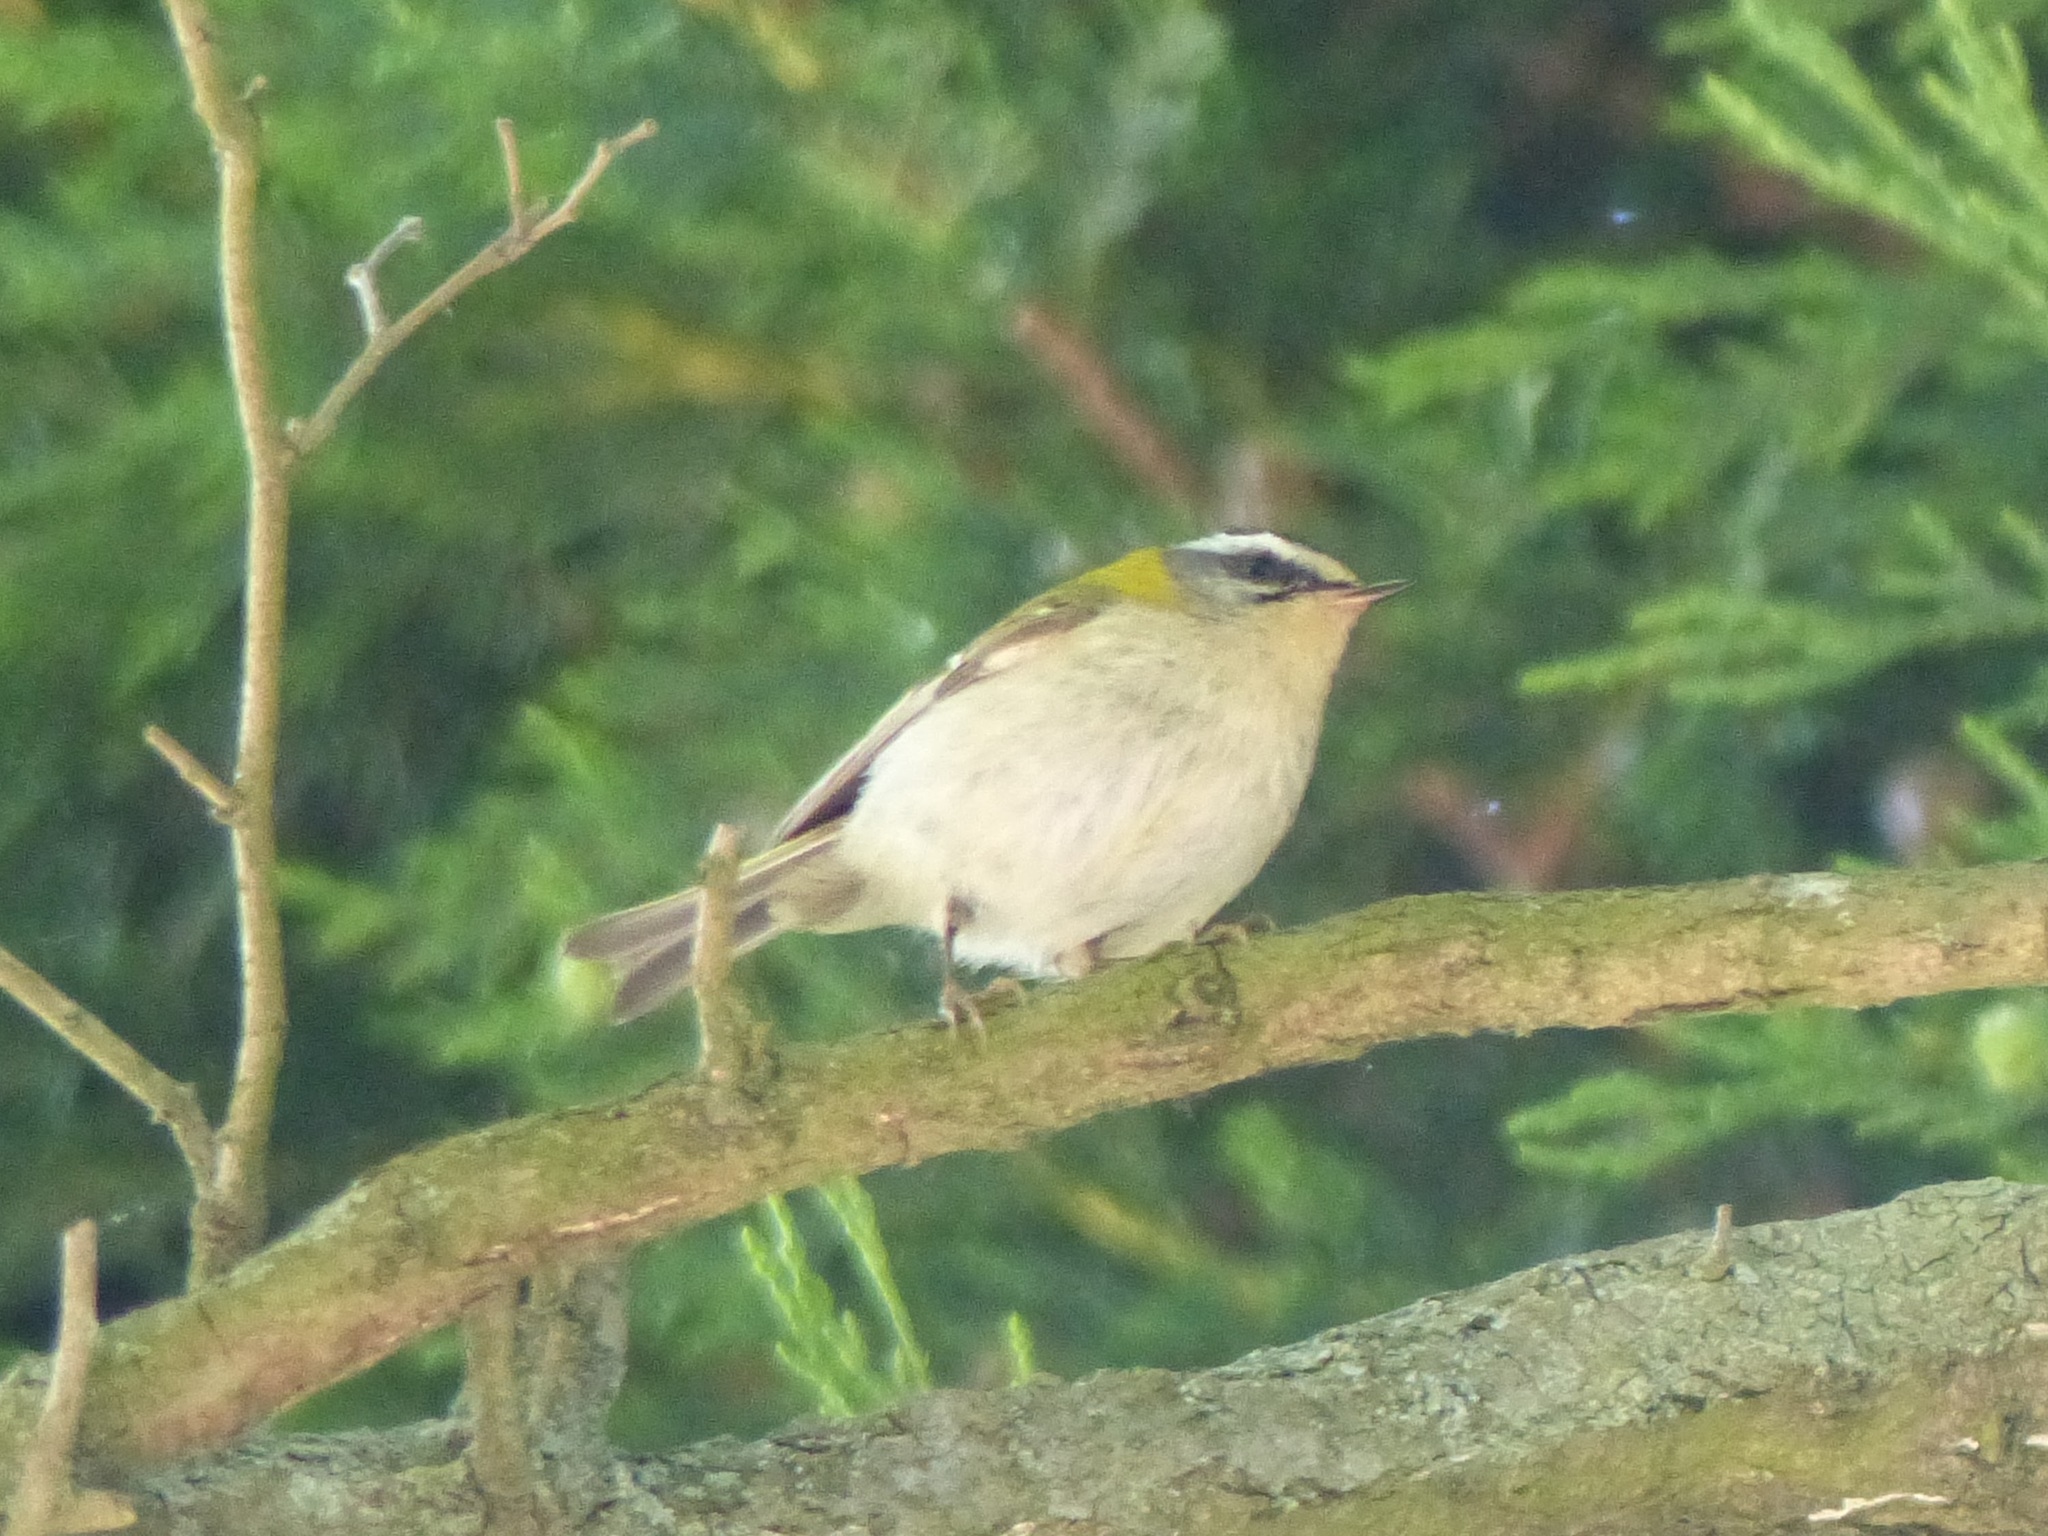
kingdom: Animalia
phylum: Chordata
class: Aves
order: Passeriformes
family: Regulidae
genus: Regulus
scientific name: Regulus ignicapilla
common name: Firecrest
